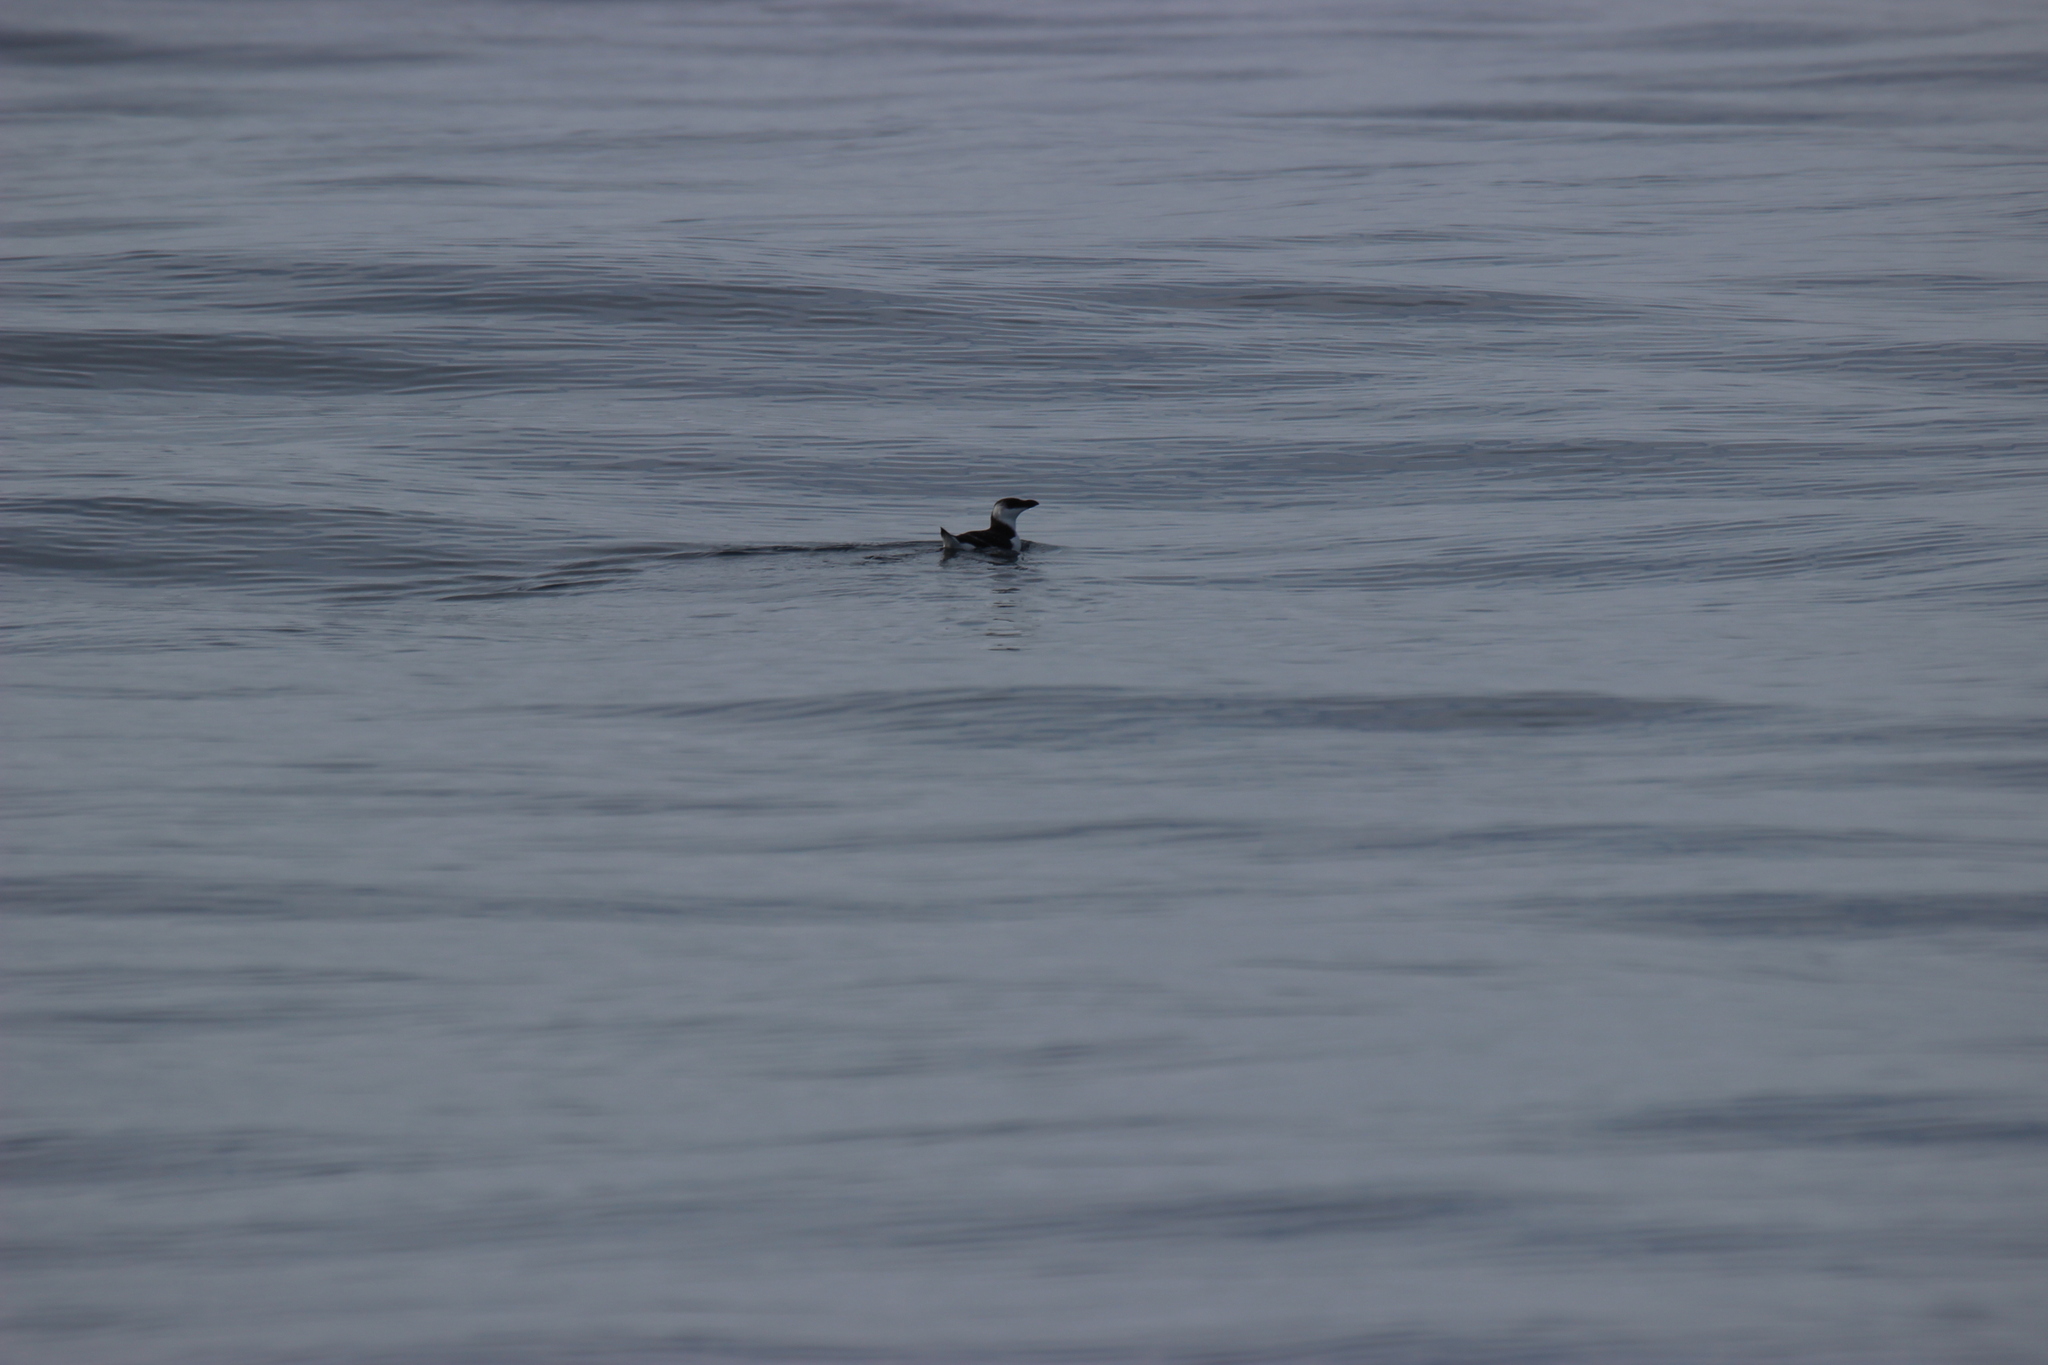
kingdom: Animalia
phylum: Chordata
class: Aves
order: Charadriiformes
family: Alcidae
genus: Alca
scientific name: Alca torda
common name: Razorbill
